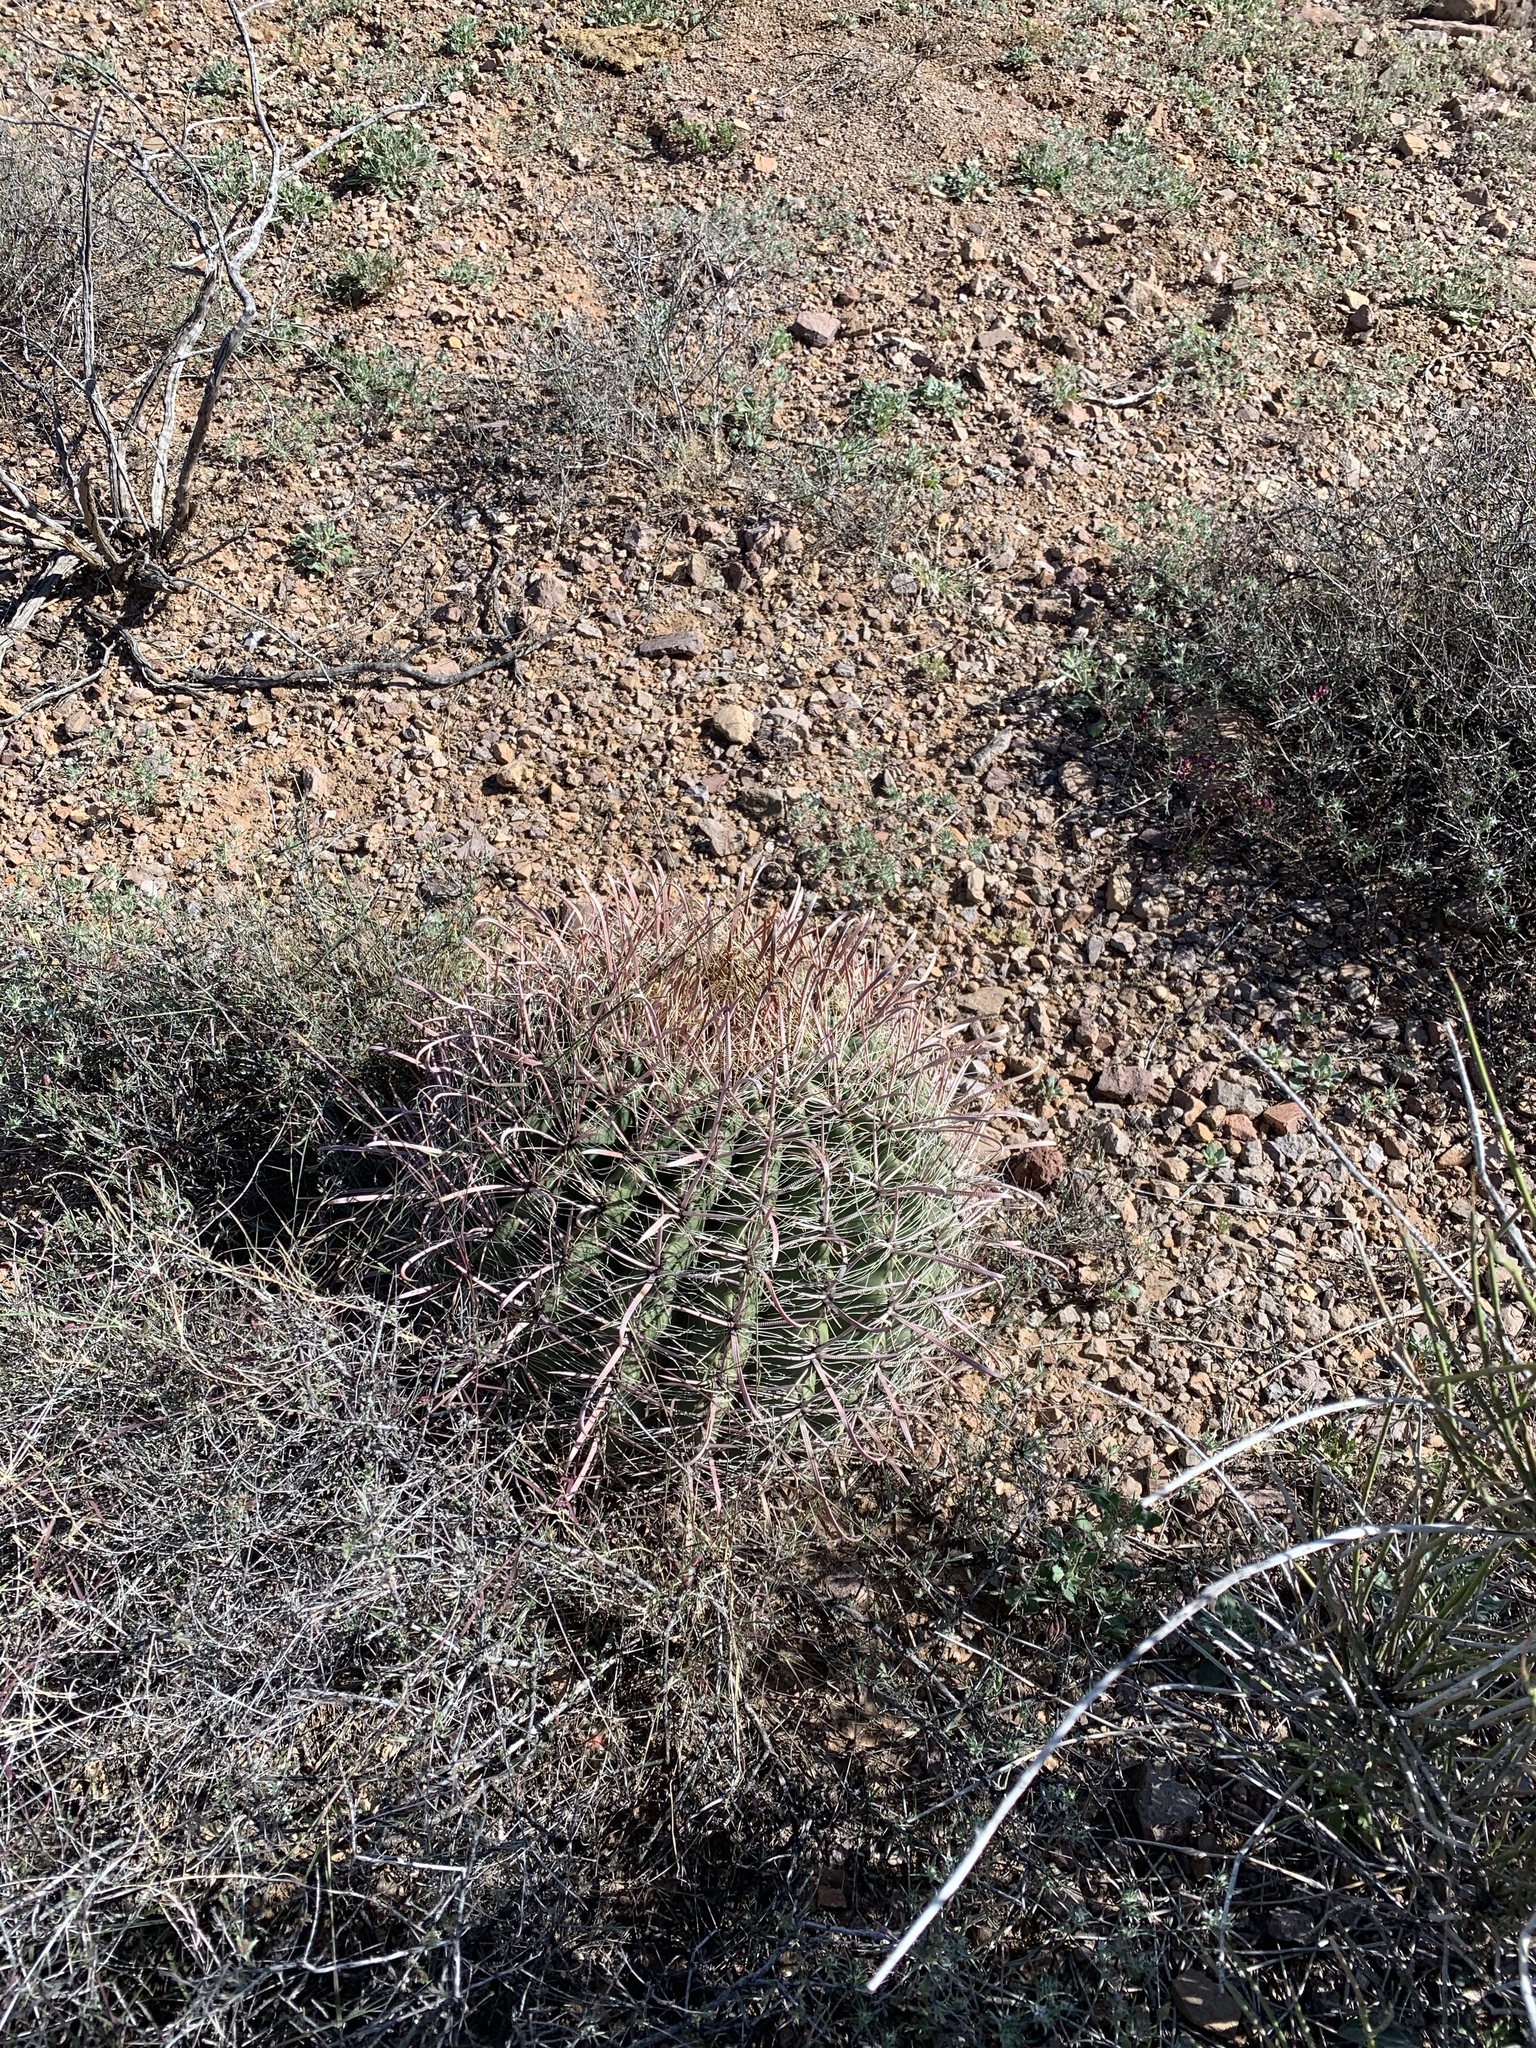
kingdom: Plantae
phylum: Tracheophyta
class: Magnoliopsida
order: Caryophyllales
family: Cactaceae
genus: Ferocactus
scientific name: Ferocactus wislizeni
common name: Candy barrel cactus
